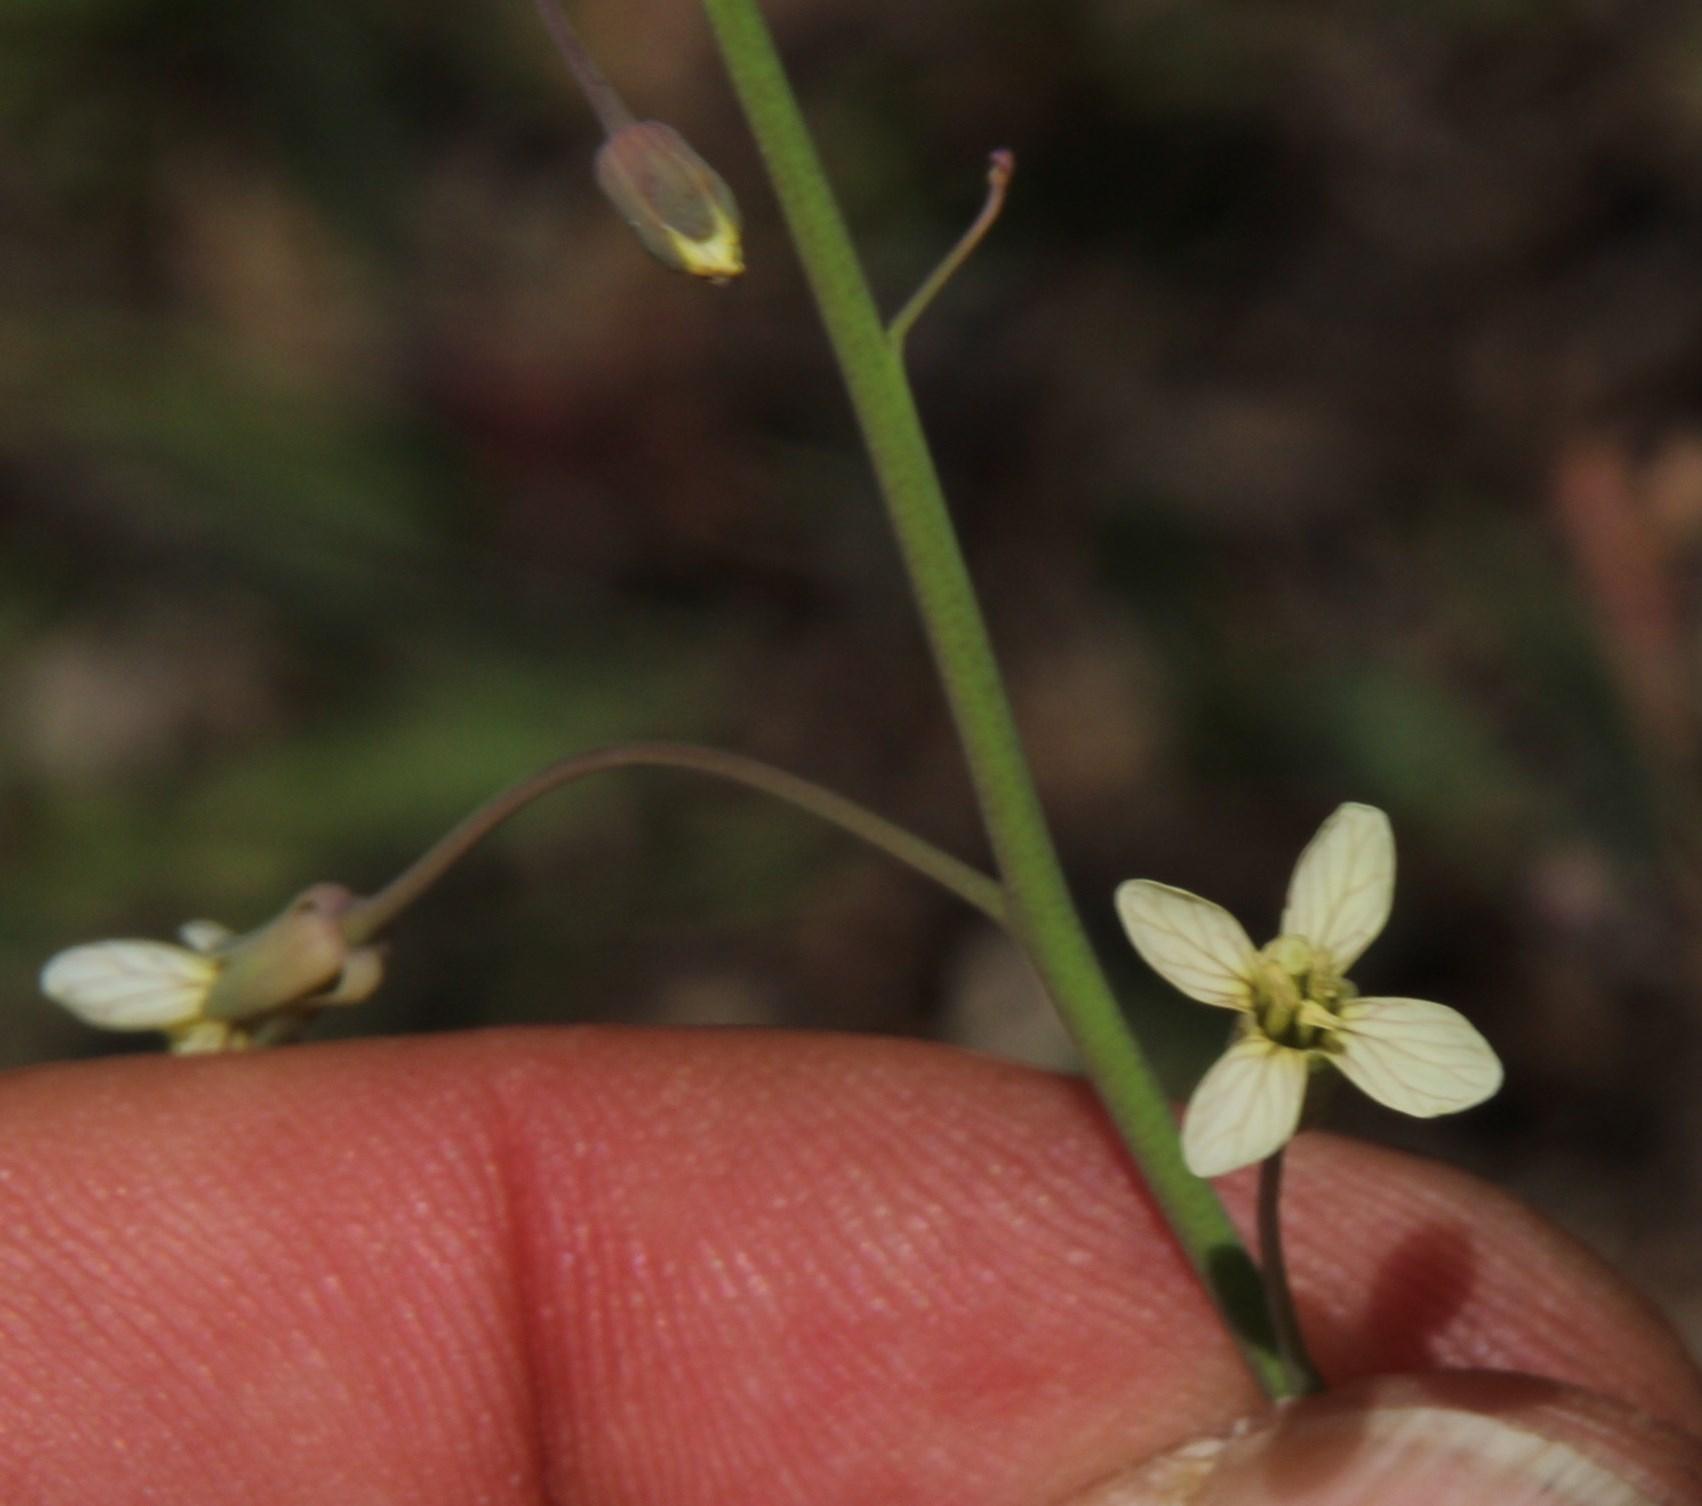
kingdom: Plantae
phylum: Tracheophyta
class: Magnoliopsida
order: Brassicales
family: Brassicaceae
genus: Brassica
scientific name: Brassica tournefortii
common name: Pale cabbage
